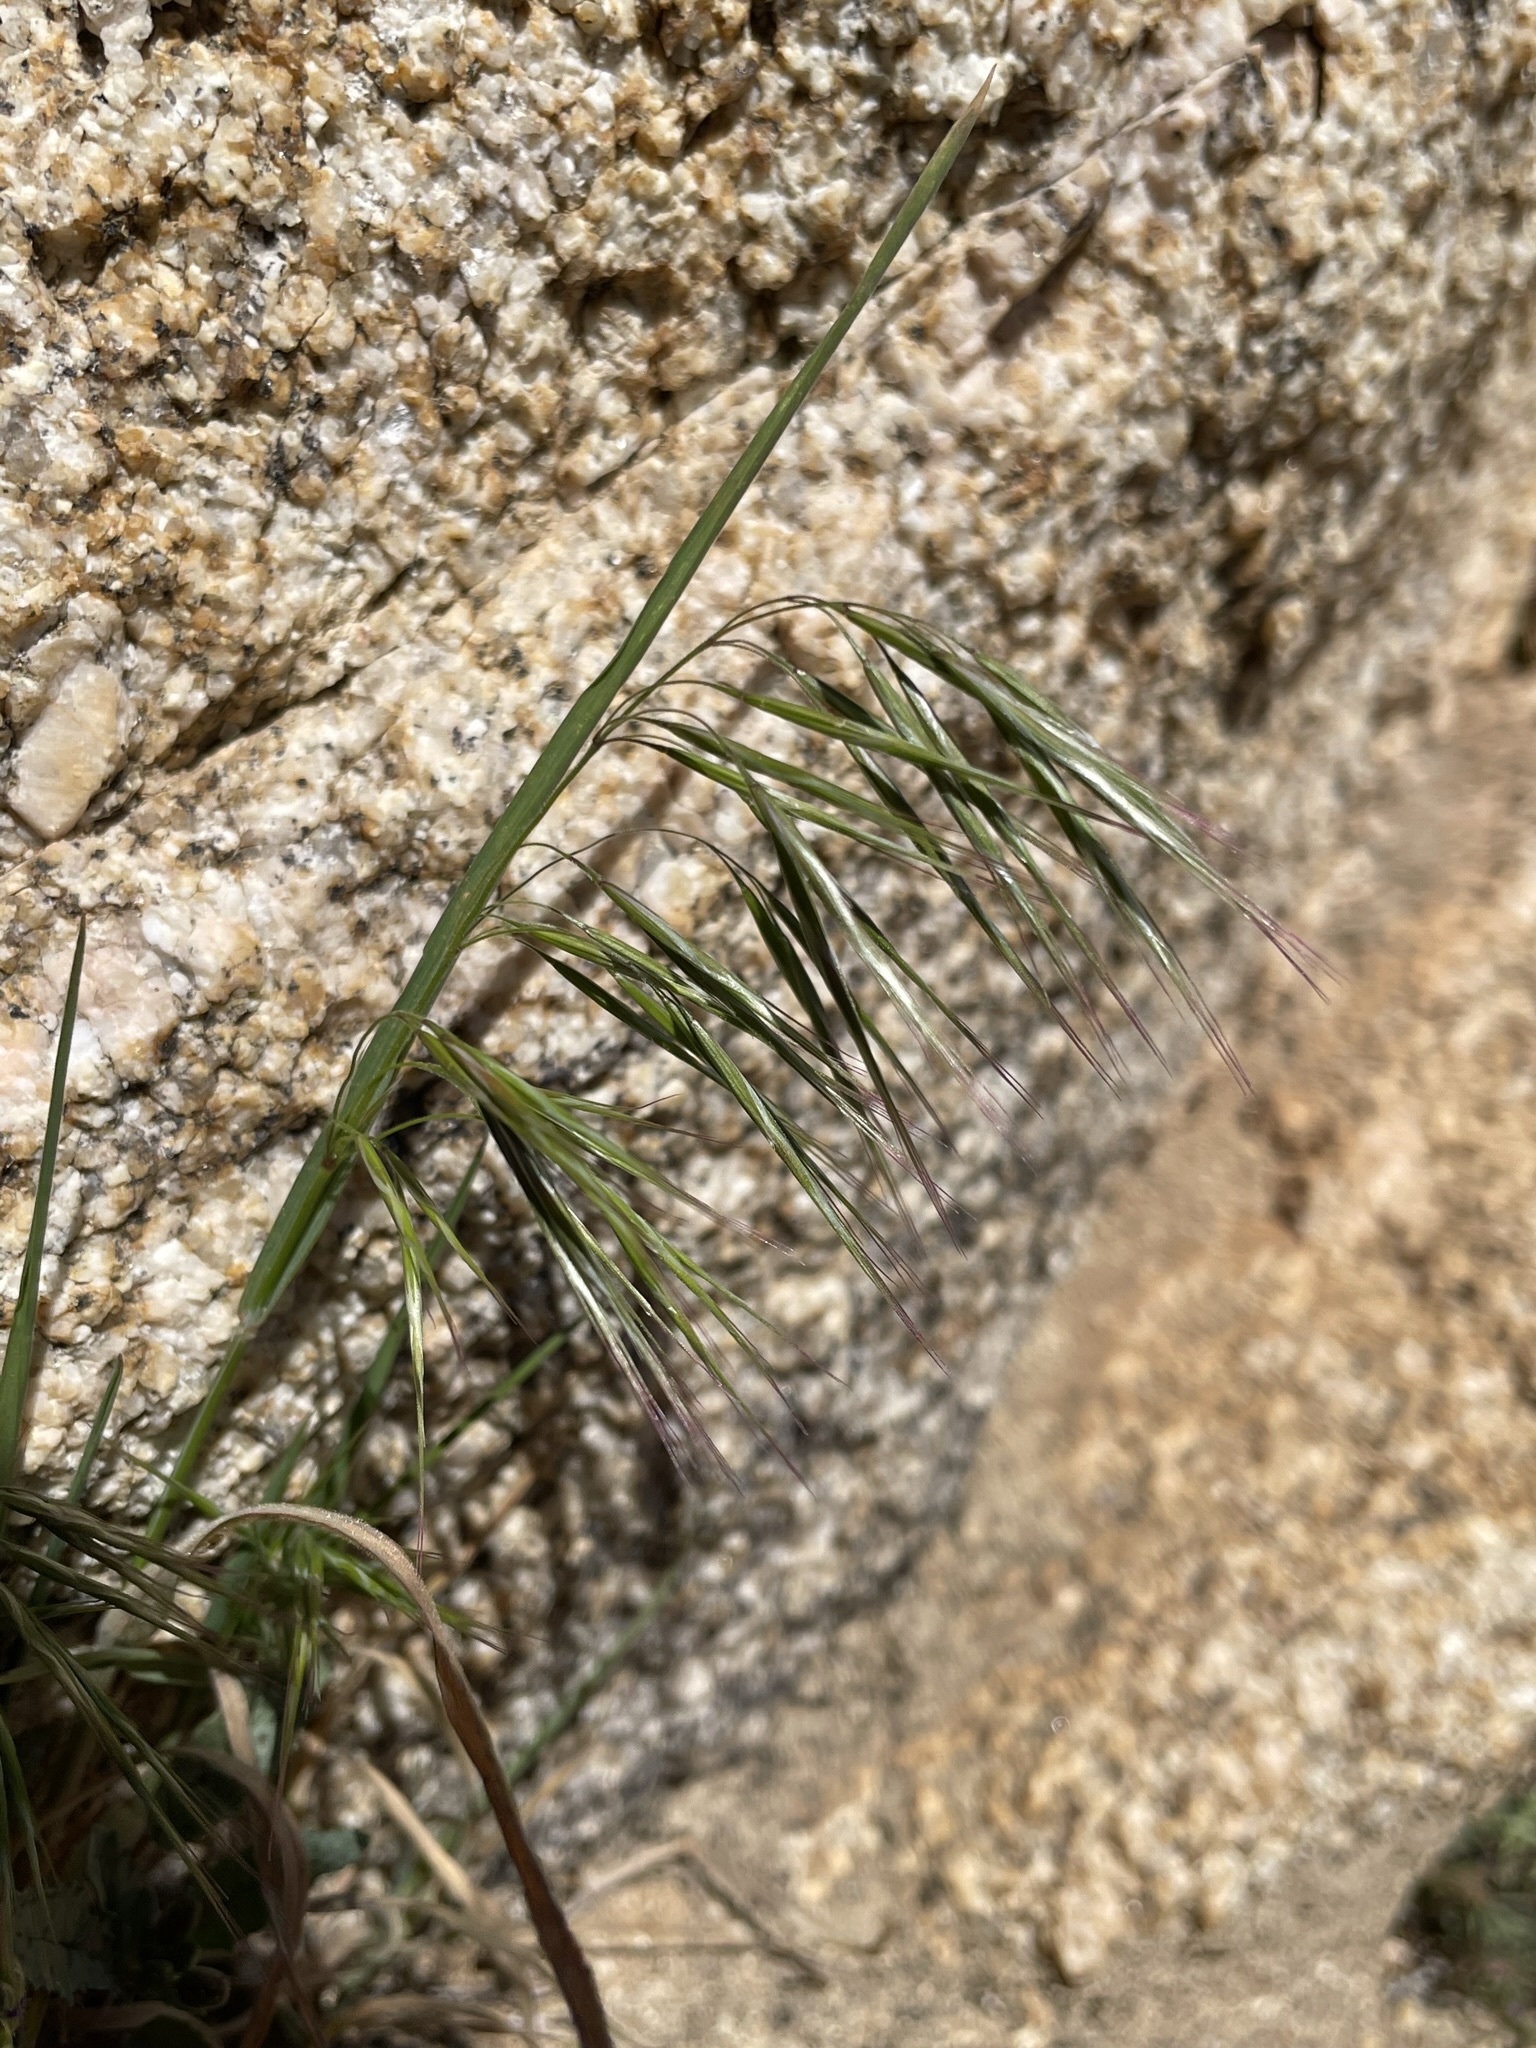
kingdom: Plantae
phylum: Tracheophyta
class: Liliopsida
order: Poales
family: Poaceae
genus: Bromus
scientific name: Bromus tectorum
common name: Cheatgrass
